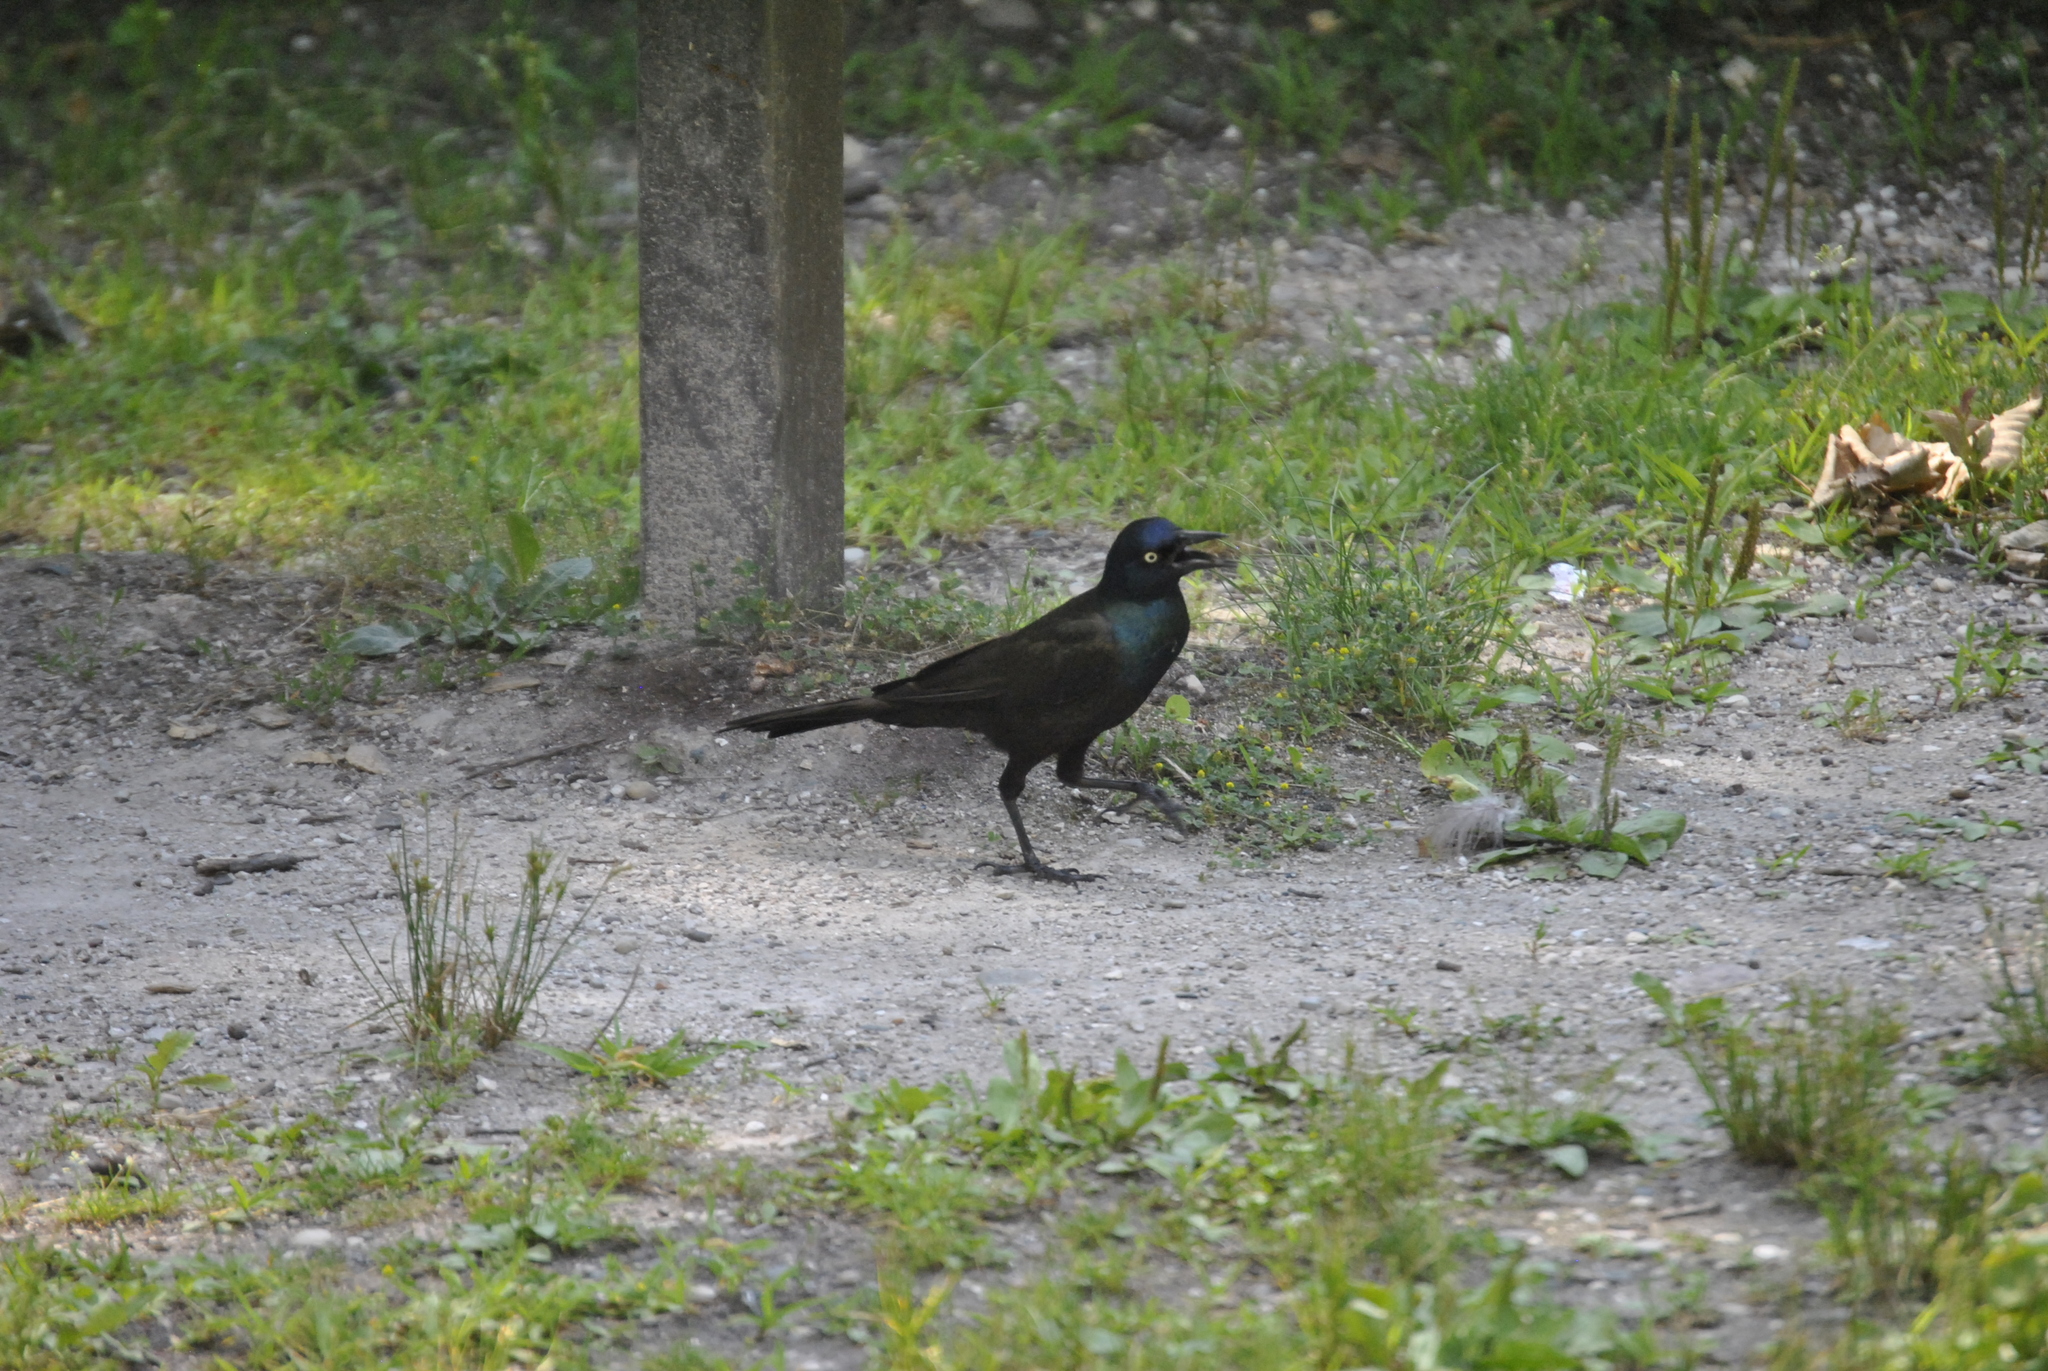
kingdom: Animalia
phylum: Chordata
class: Aves
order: Passeriformes
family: Icteridae
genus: Quiscalus
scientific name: Quiscalus quiscula
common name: Common grackle
